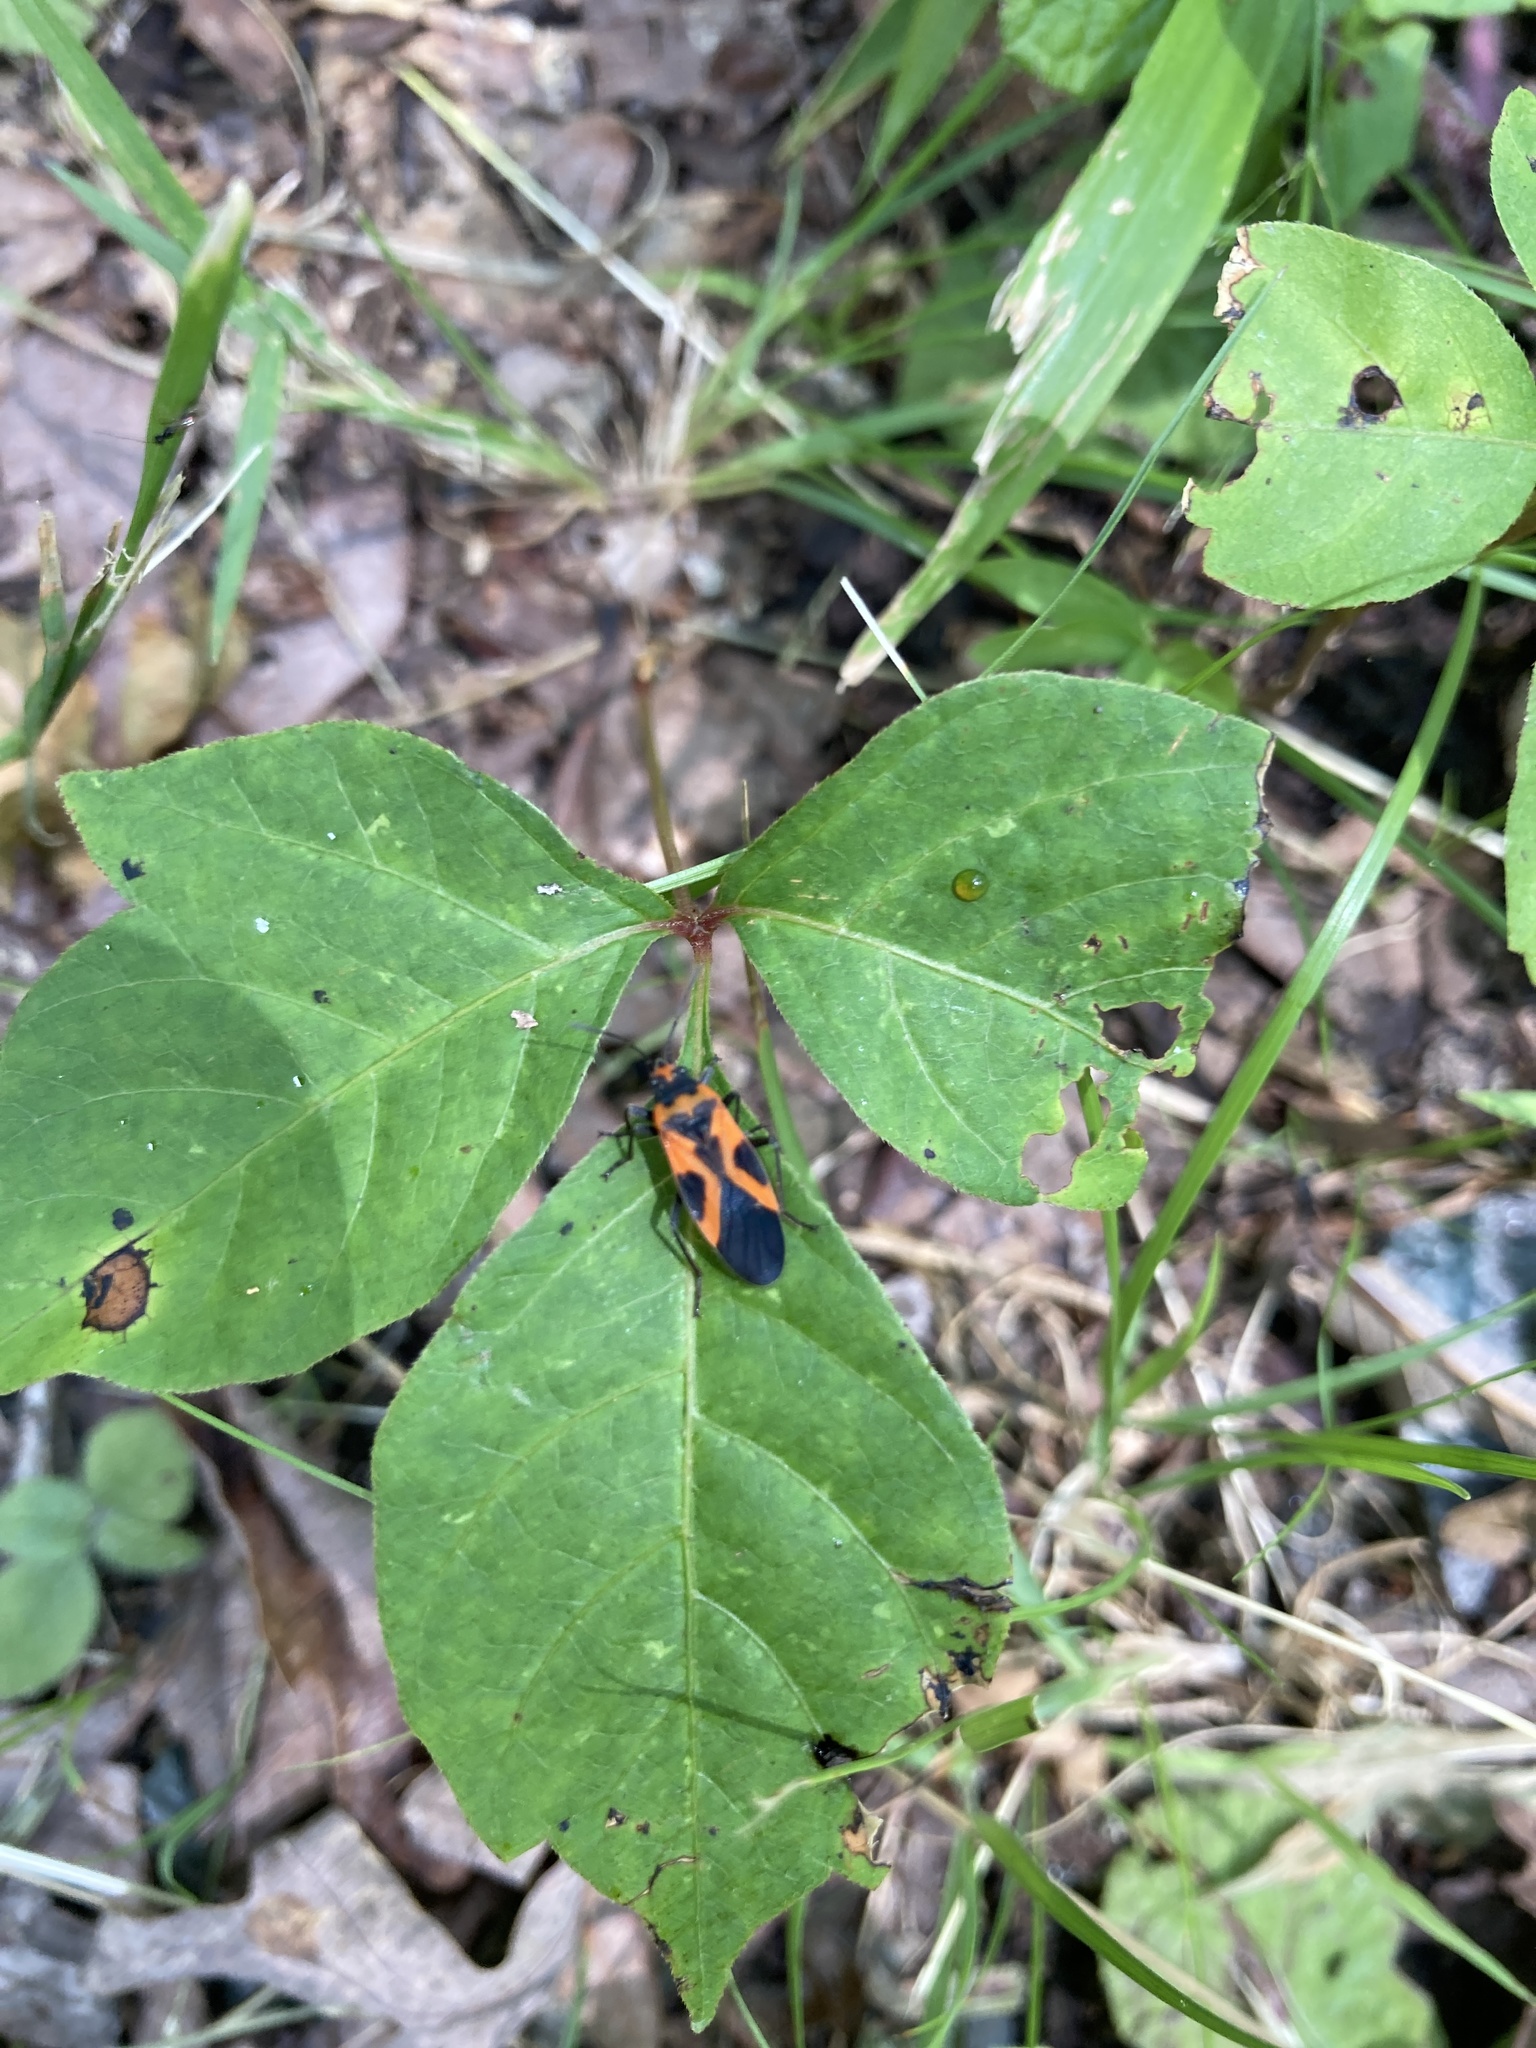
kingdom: Animalia
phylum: Arthropoda
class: Insecta
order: Hemiptera
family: Lygaeidae
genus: Lygaeus
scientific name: Lygaeus turcicus
